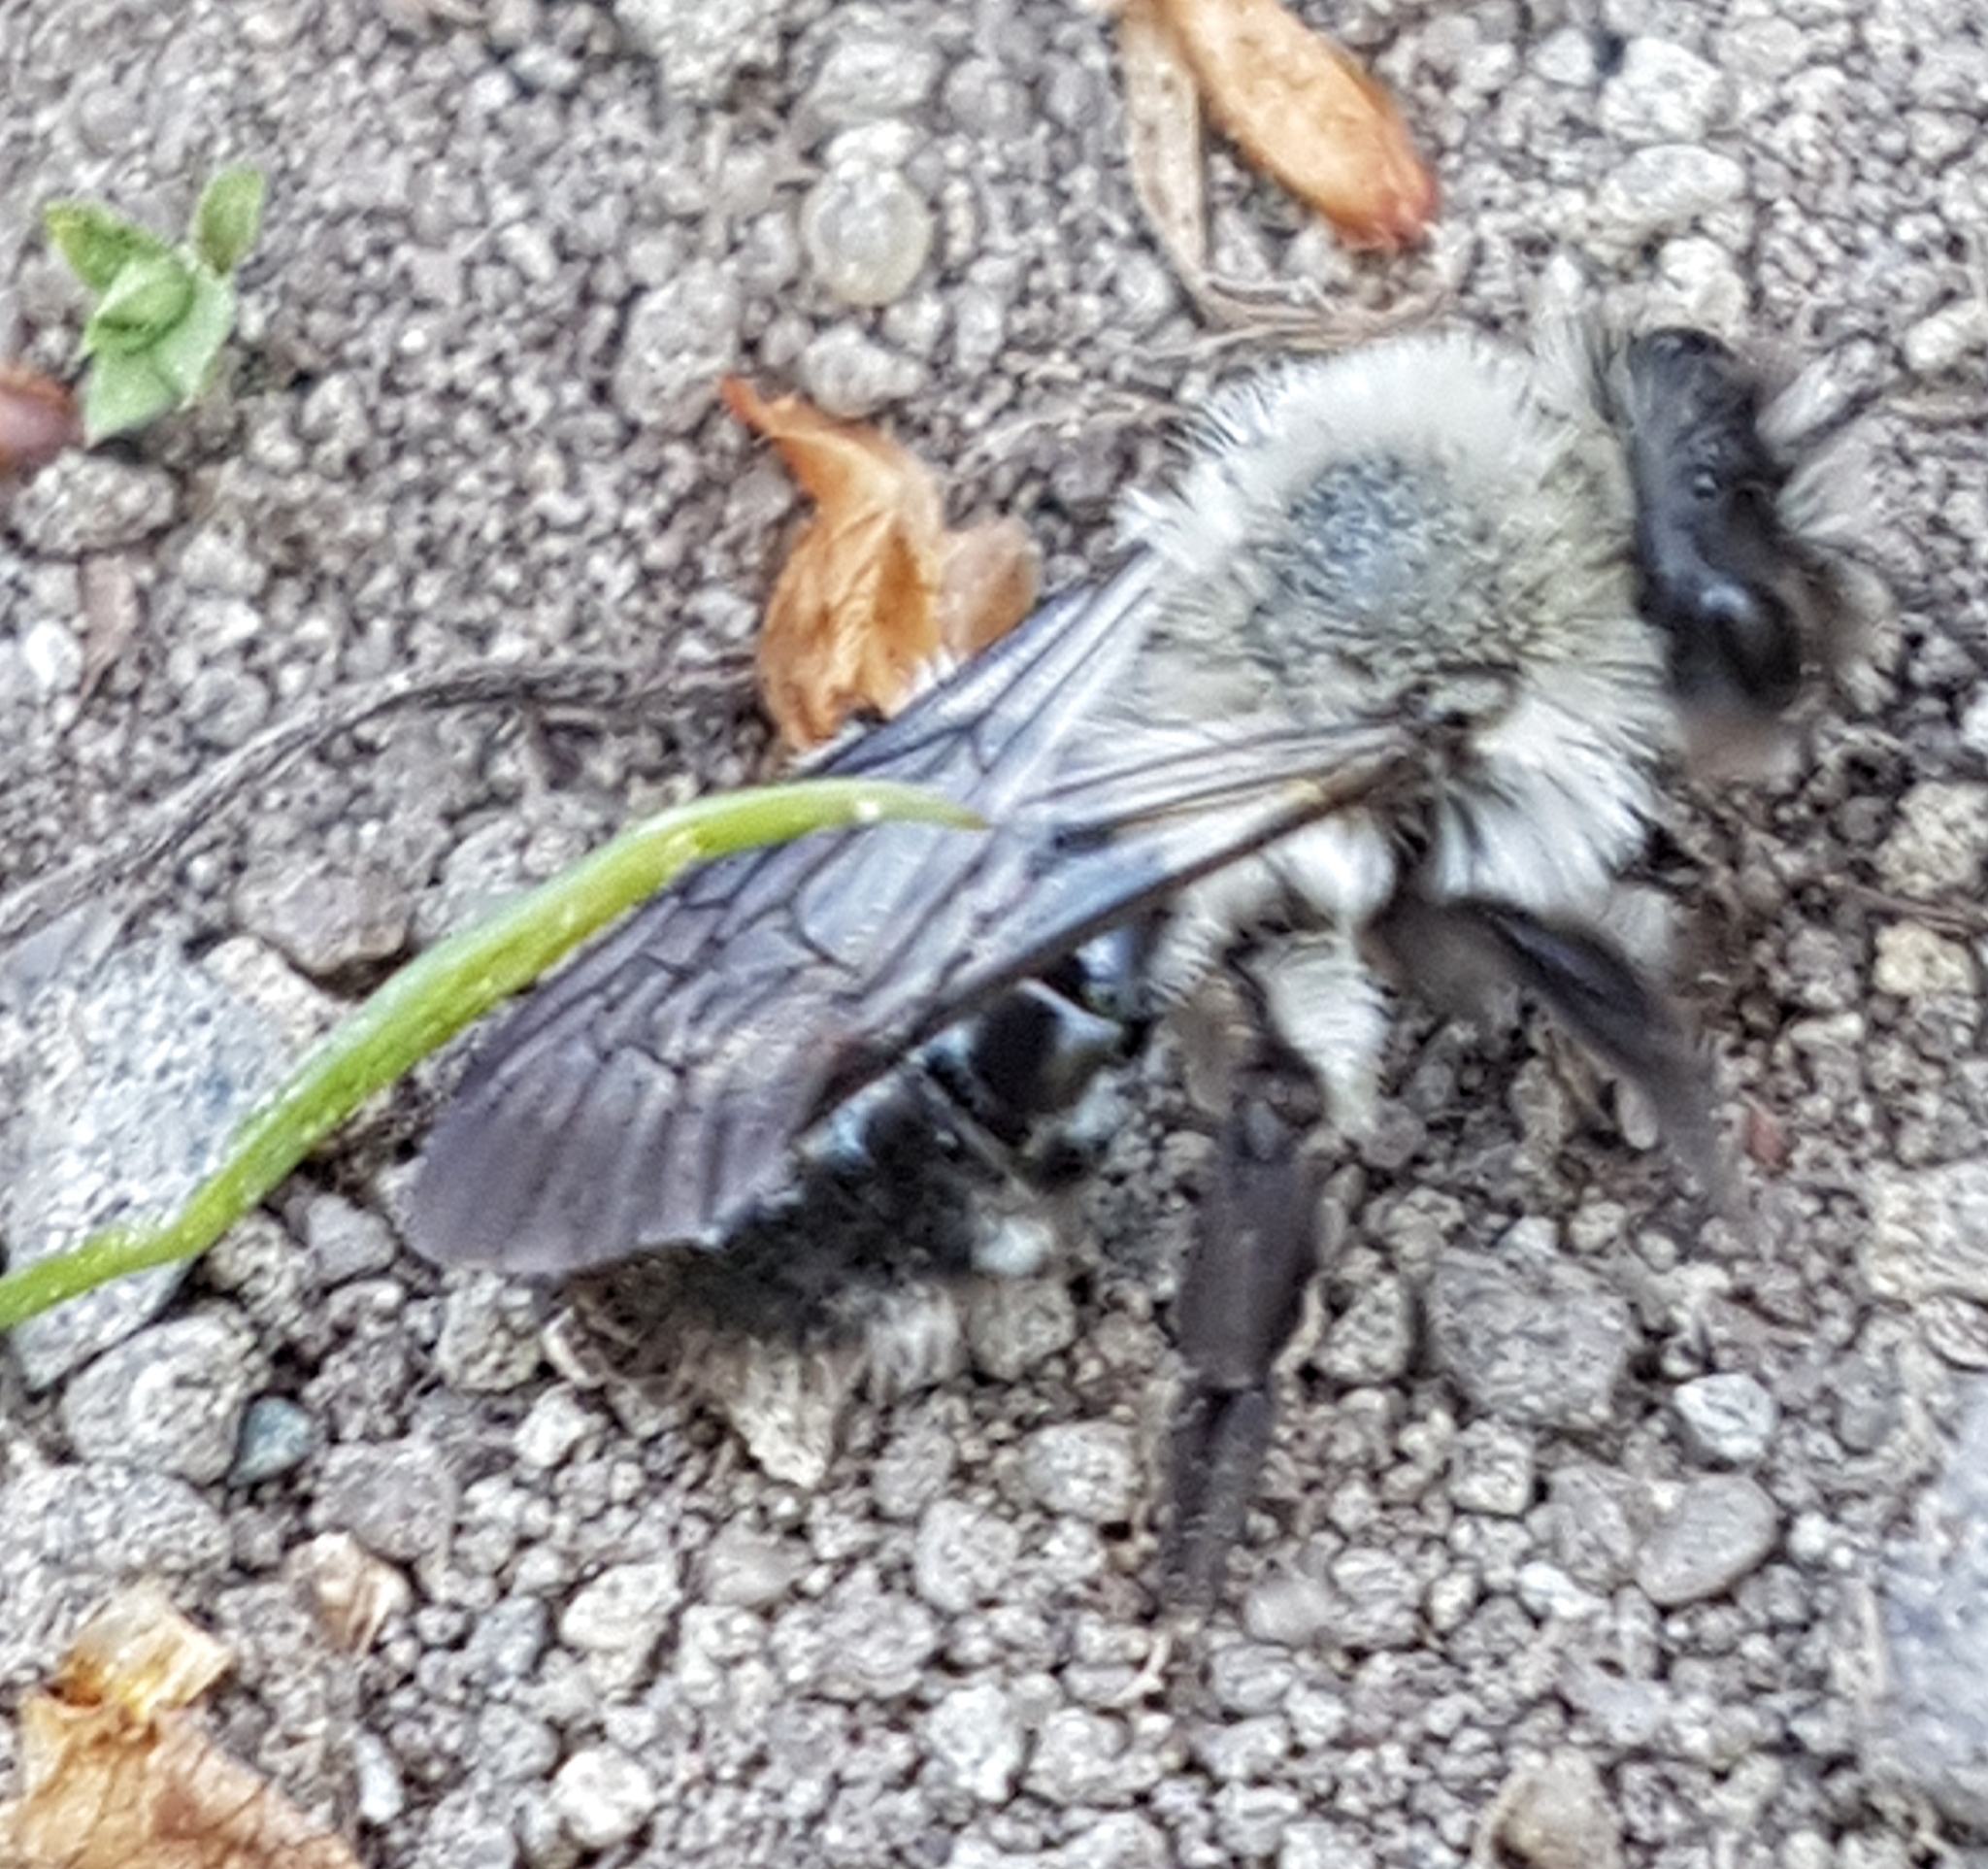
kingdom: Animalia
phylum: Arthropoda
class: Insecta
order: Hymenoptera
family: Andrenidae
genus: Andrena
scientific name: Andrena vaga
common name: Grey-backed mining bee
